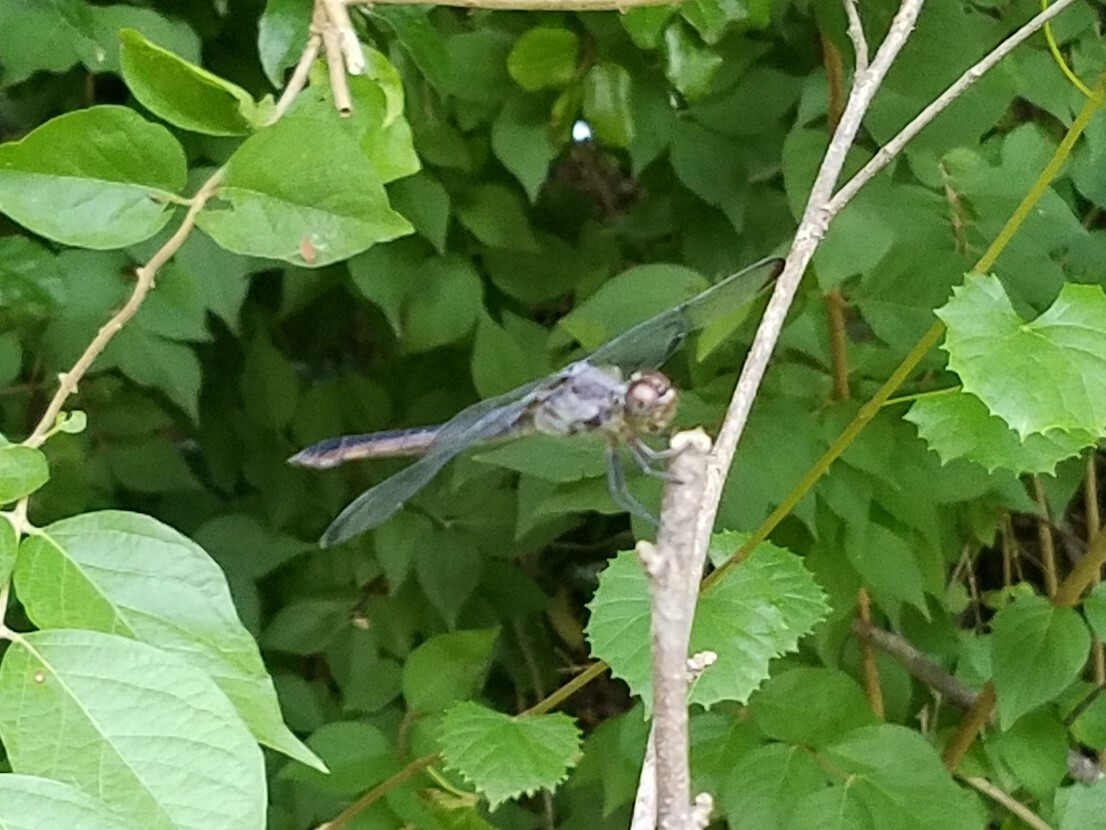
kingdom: Animalia
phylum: Arthropoda
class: Insecta
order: Odonata
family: Libellulidae
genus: Libellula
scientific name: Libellula incesta
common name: Slaty skimmer
